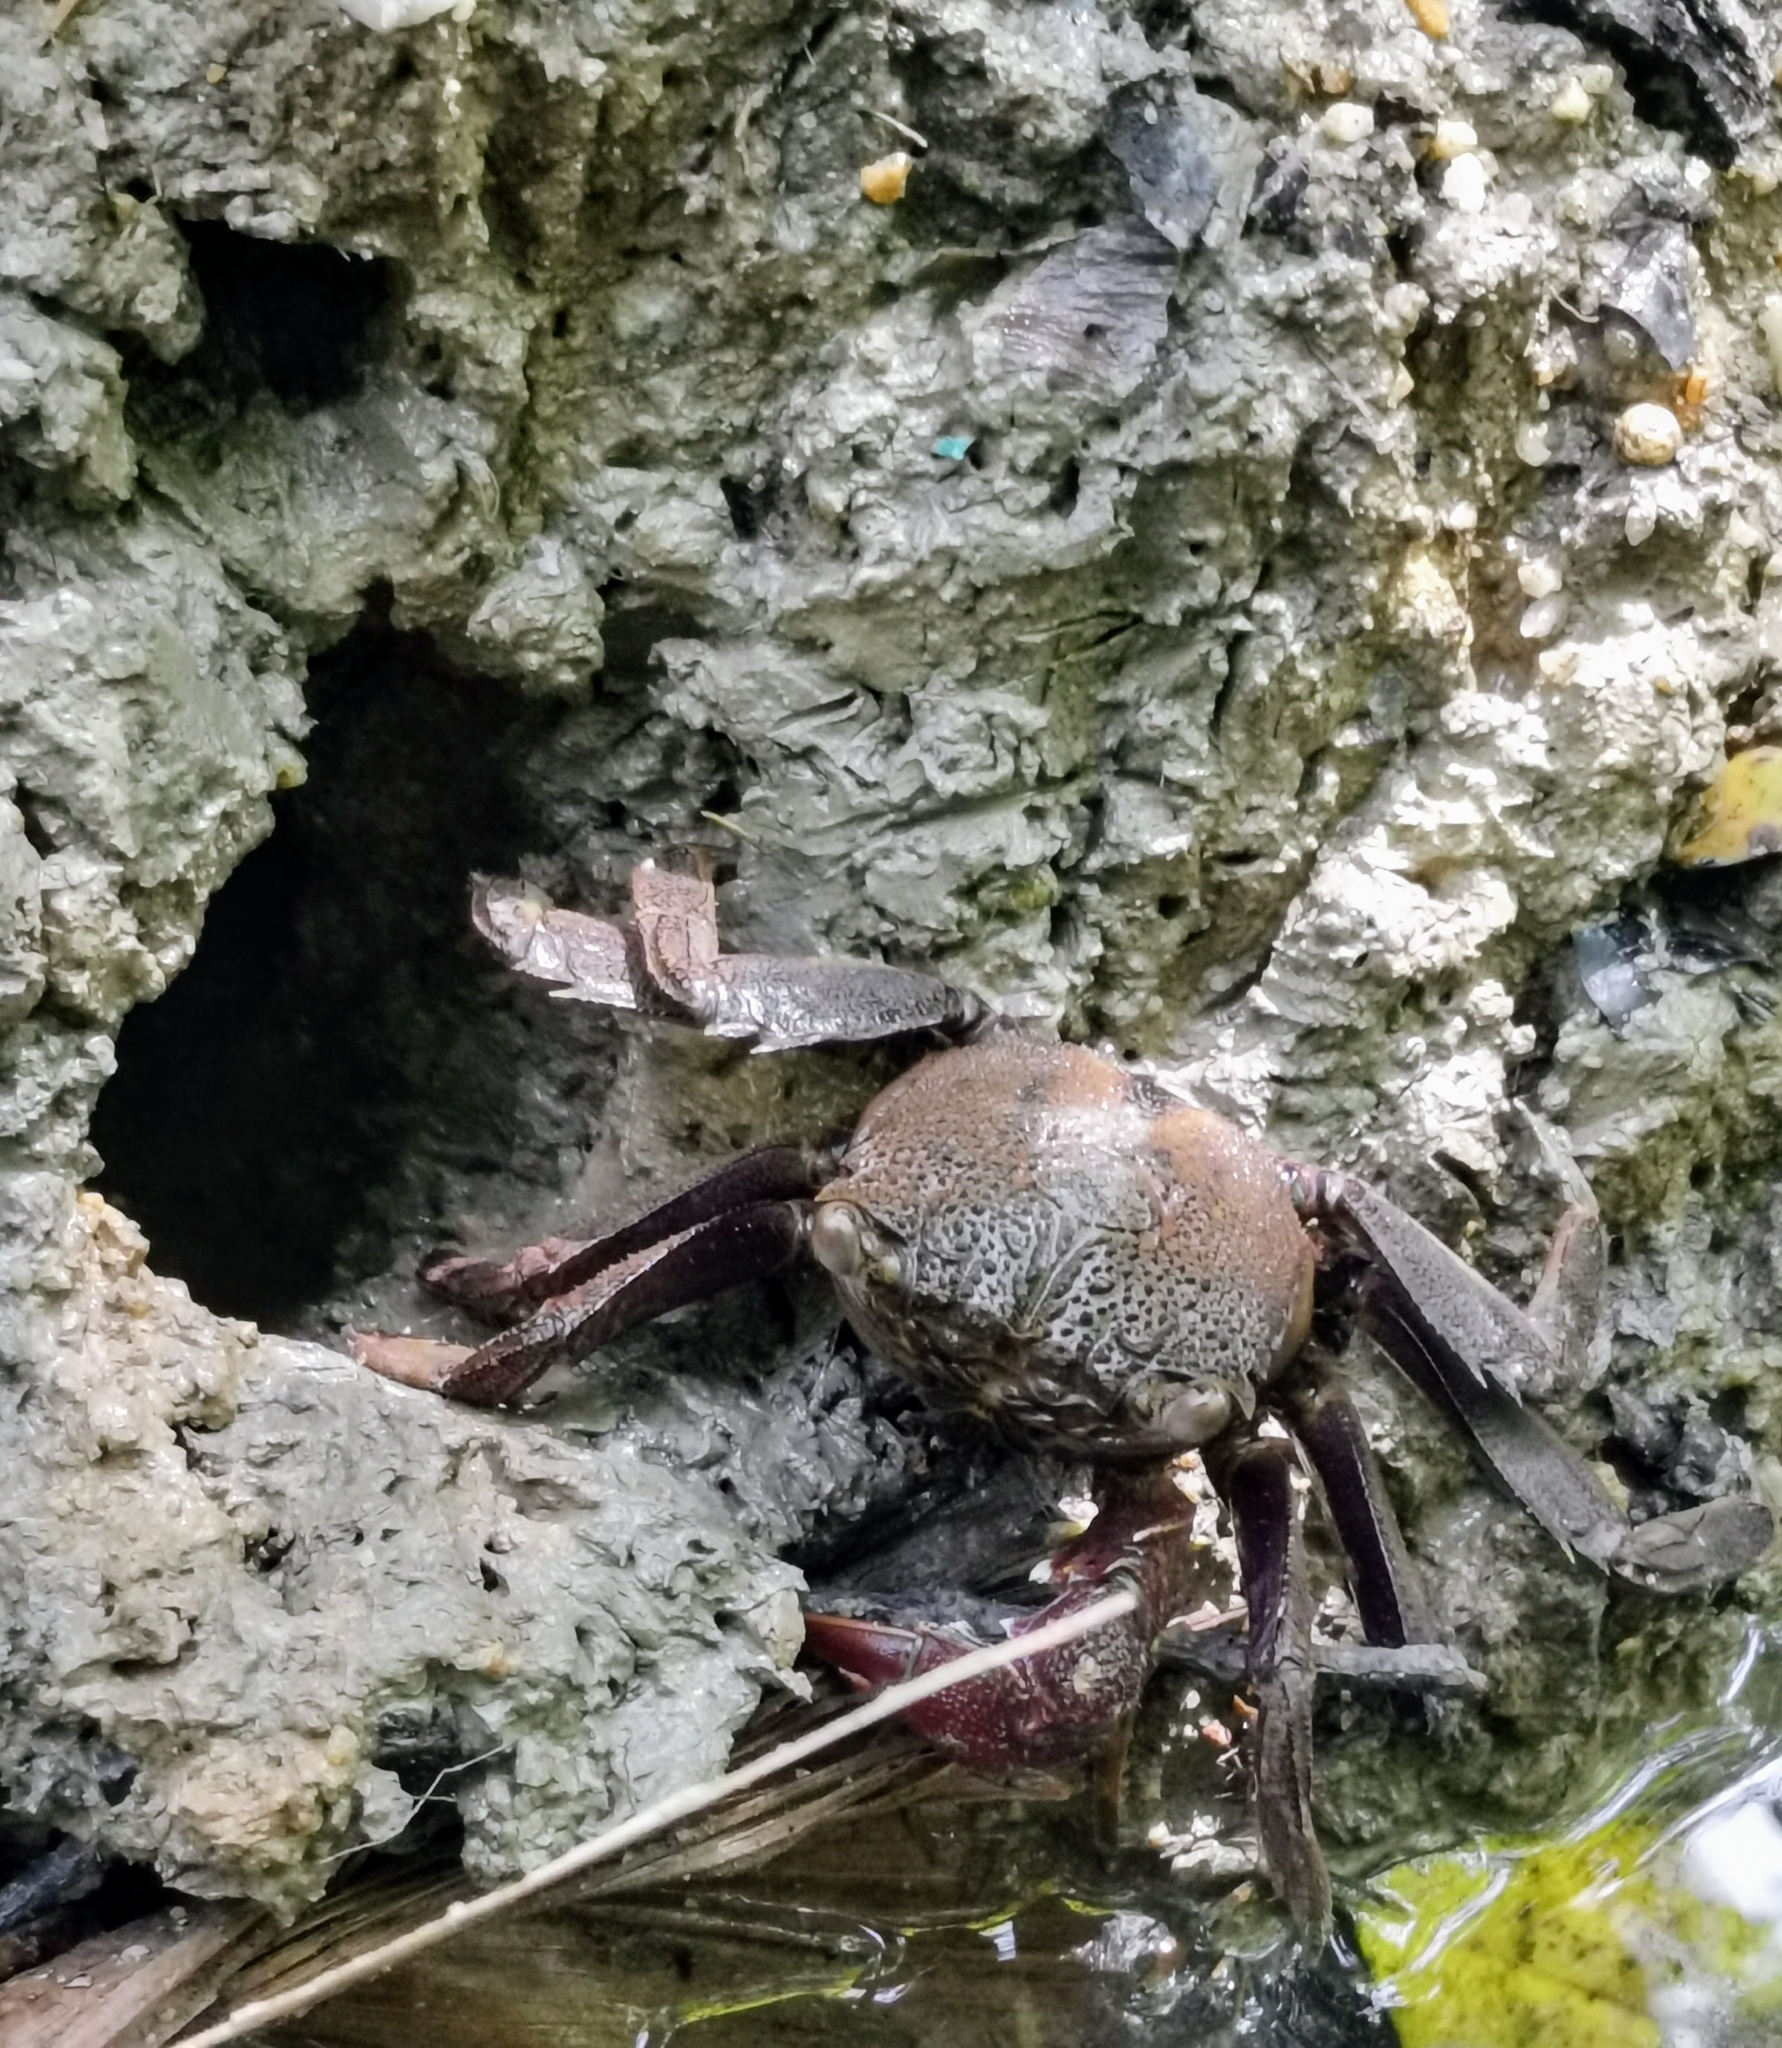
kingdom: Animalia
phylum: Arthropoda
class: Malacostraca
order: Decapoda
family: Sesarmidae
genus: Episesarma
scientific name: Episesarma chentongense
